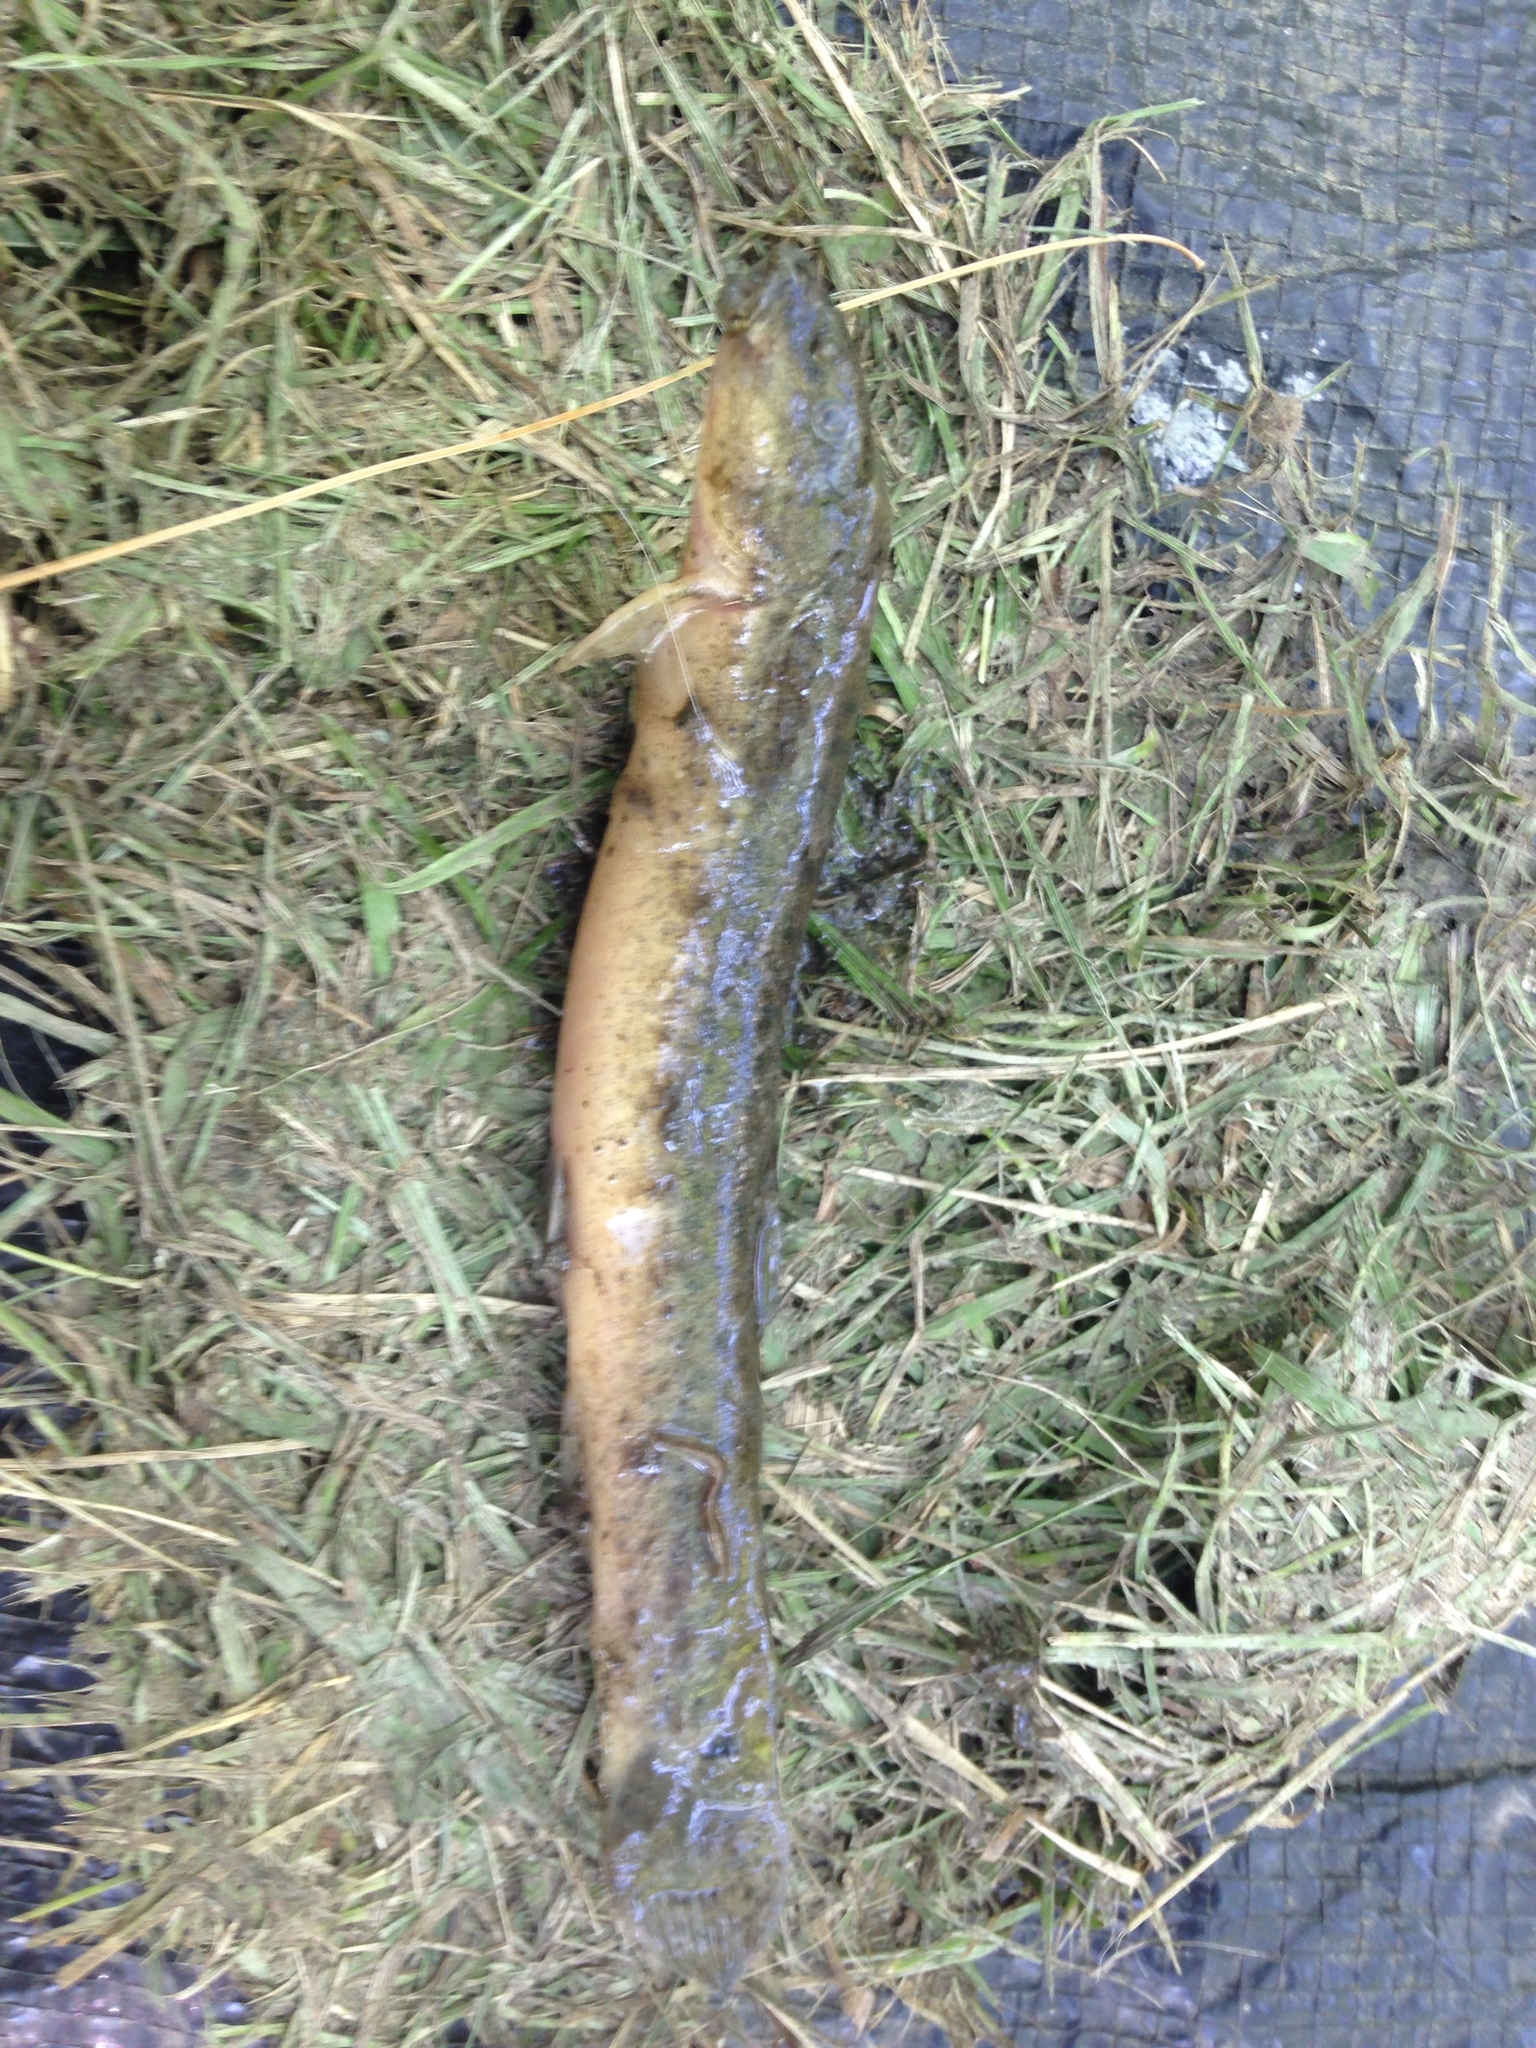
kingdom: Animalia
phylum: Chordata
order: Cypriniformes
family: Cobitidae
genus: Misgurnus
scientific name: Misgurnus anguillicaudatus
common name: Oriental weatherfish
